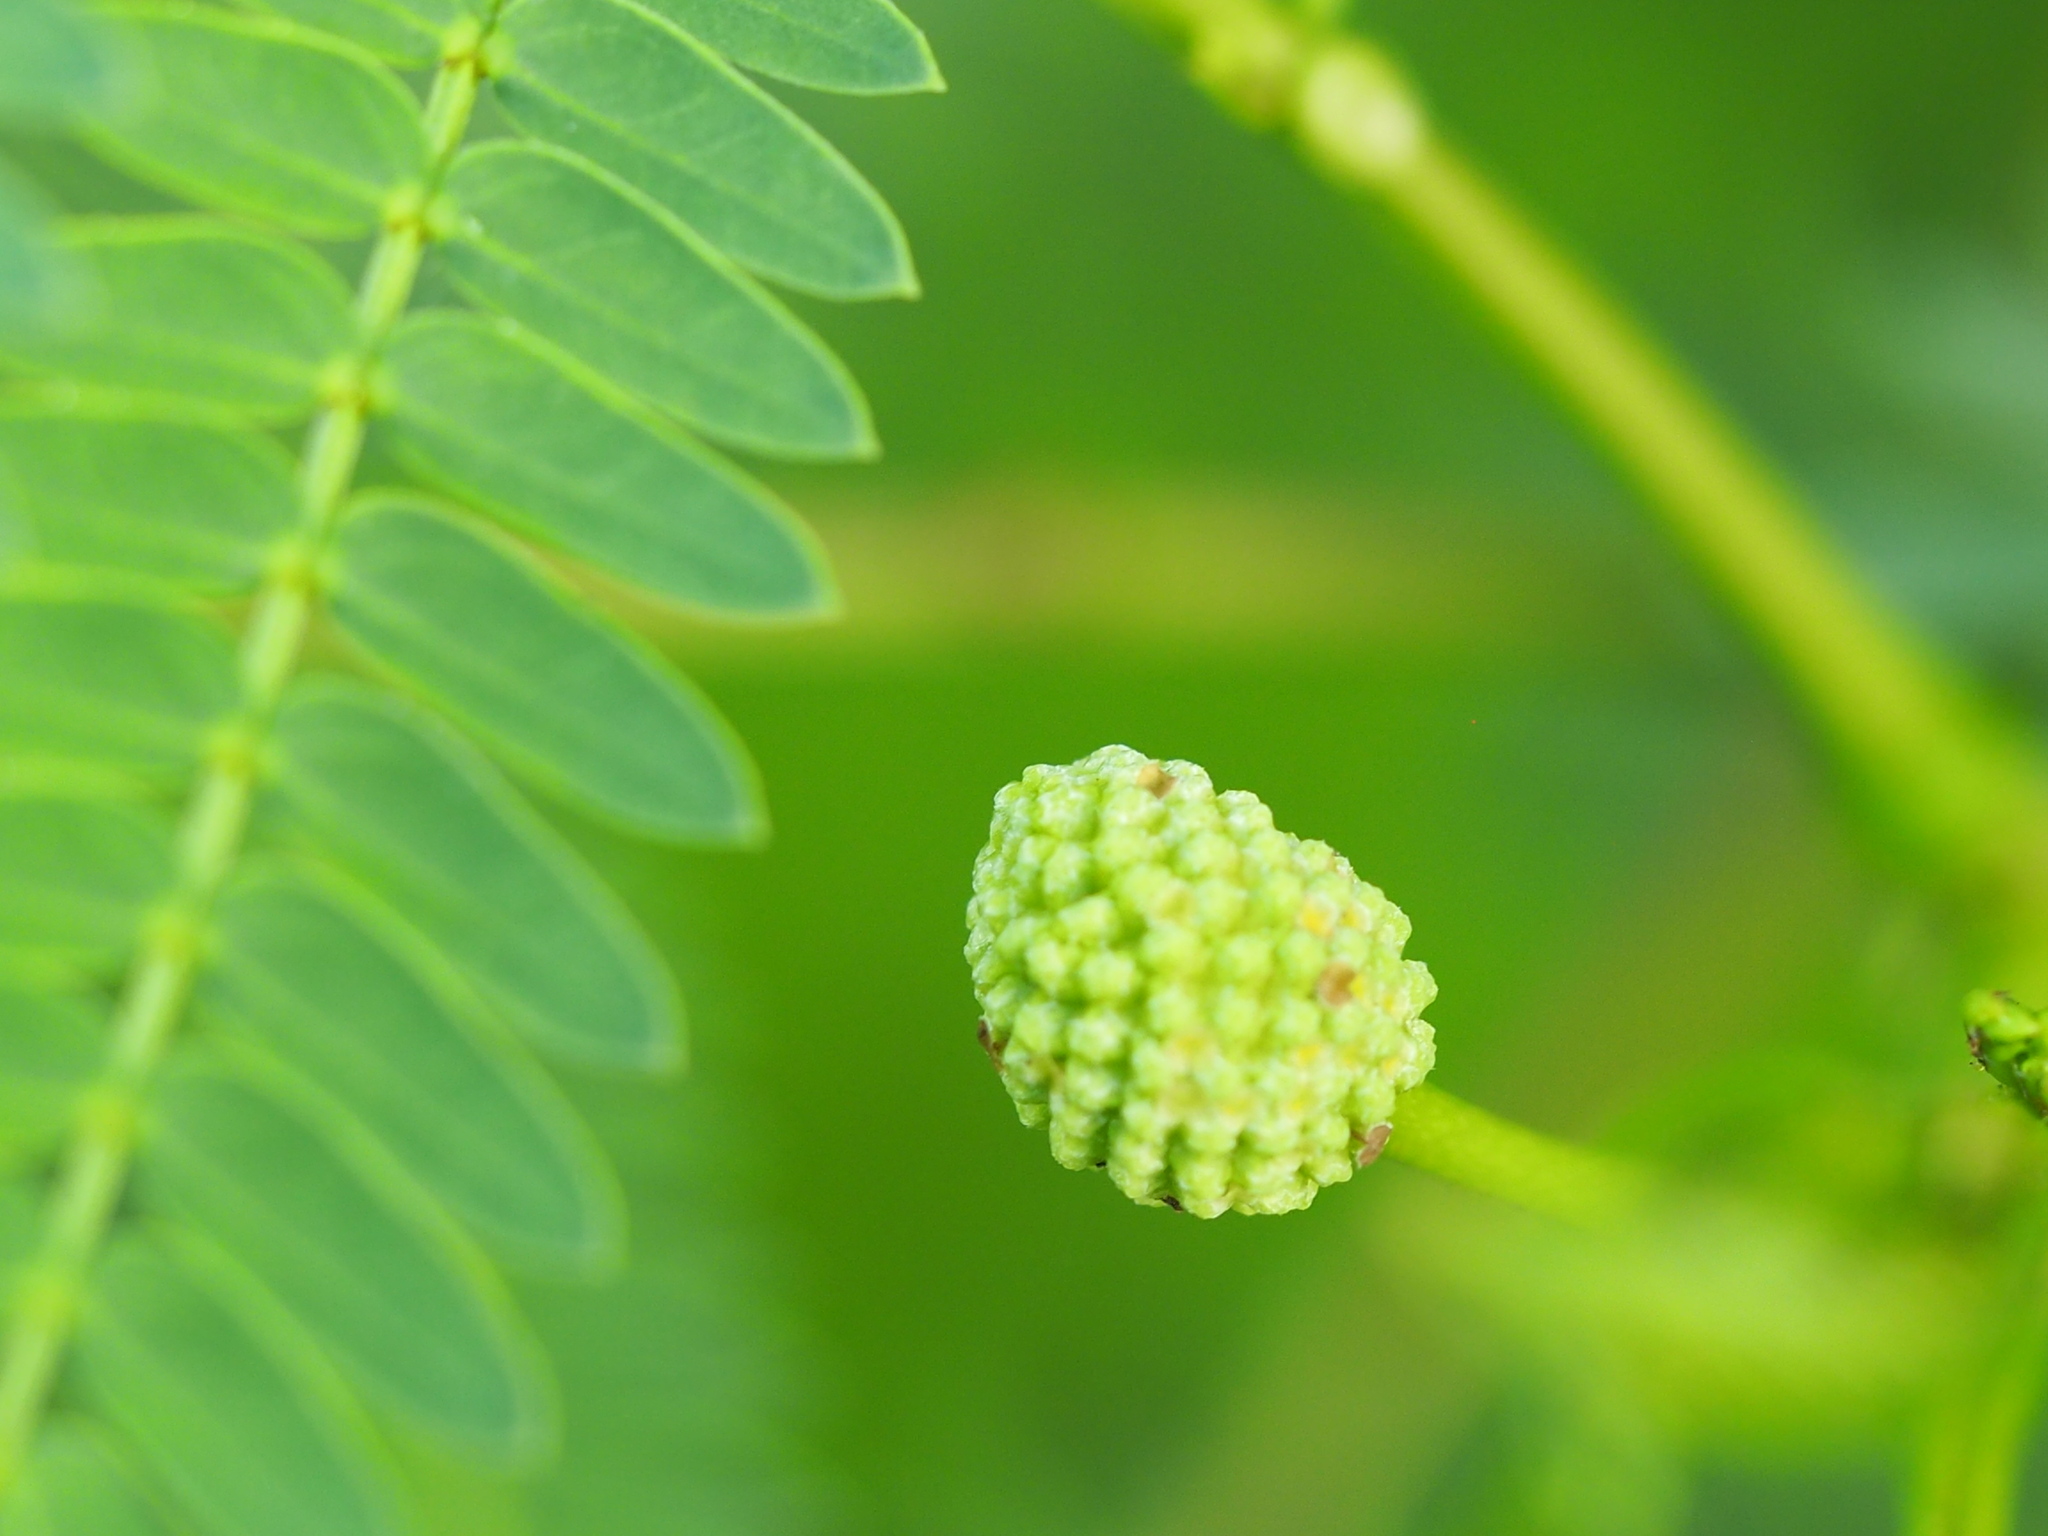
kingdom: Plantae
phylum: Tracheophyta
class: Magnoliopsida
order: Fabales
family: Fabaceae
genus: Leucaena
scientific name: Leucaena leucocephala
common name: White leadtree
